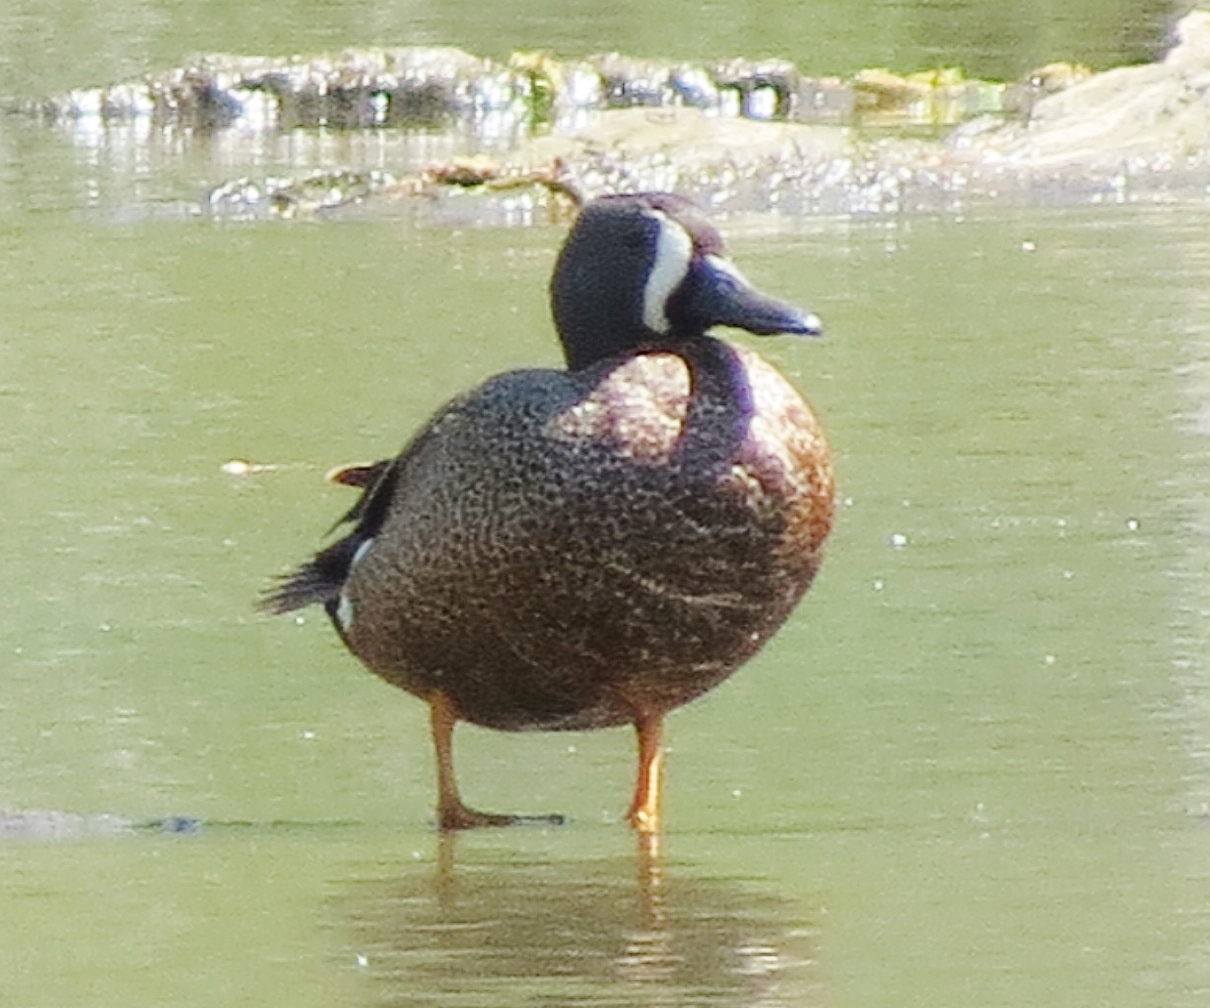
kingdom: Animalia
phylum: Chordata
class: Aves
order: Anseriformes
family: Anatidae
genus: Spatula
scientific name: Spatula discors
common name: Blue-winged teal
